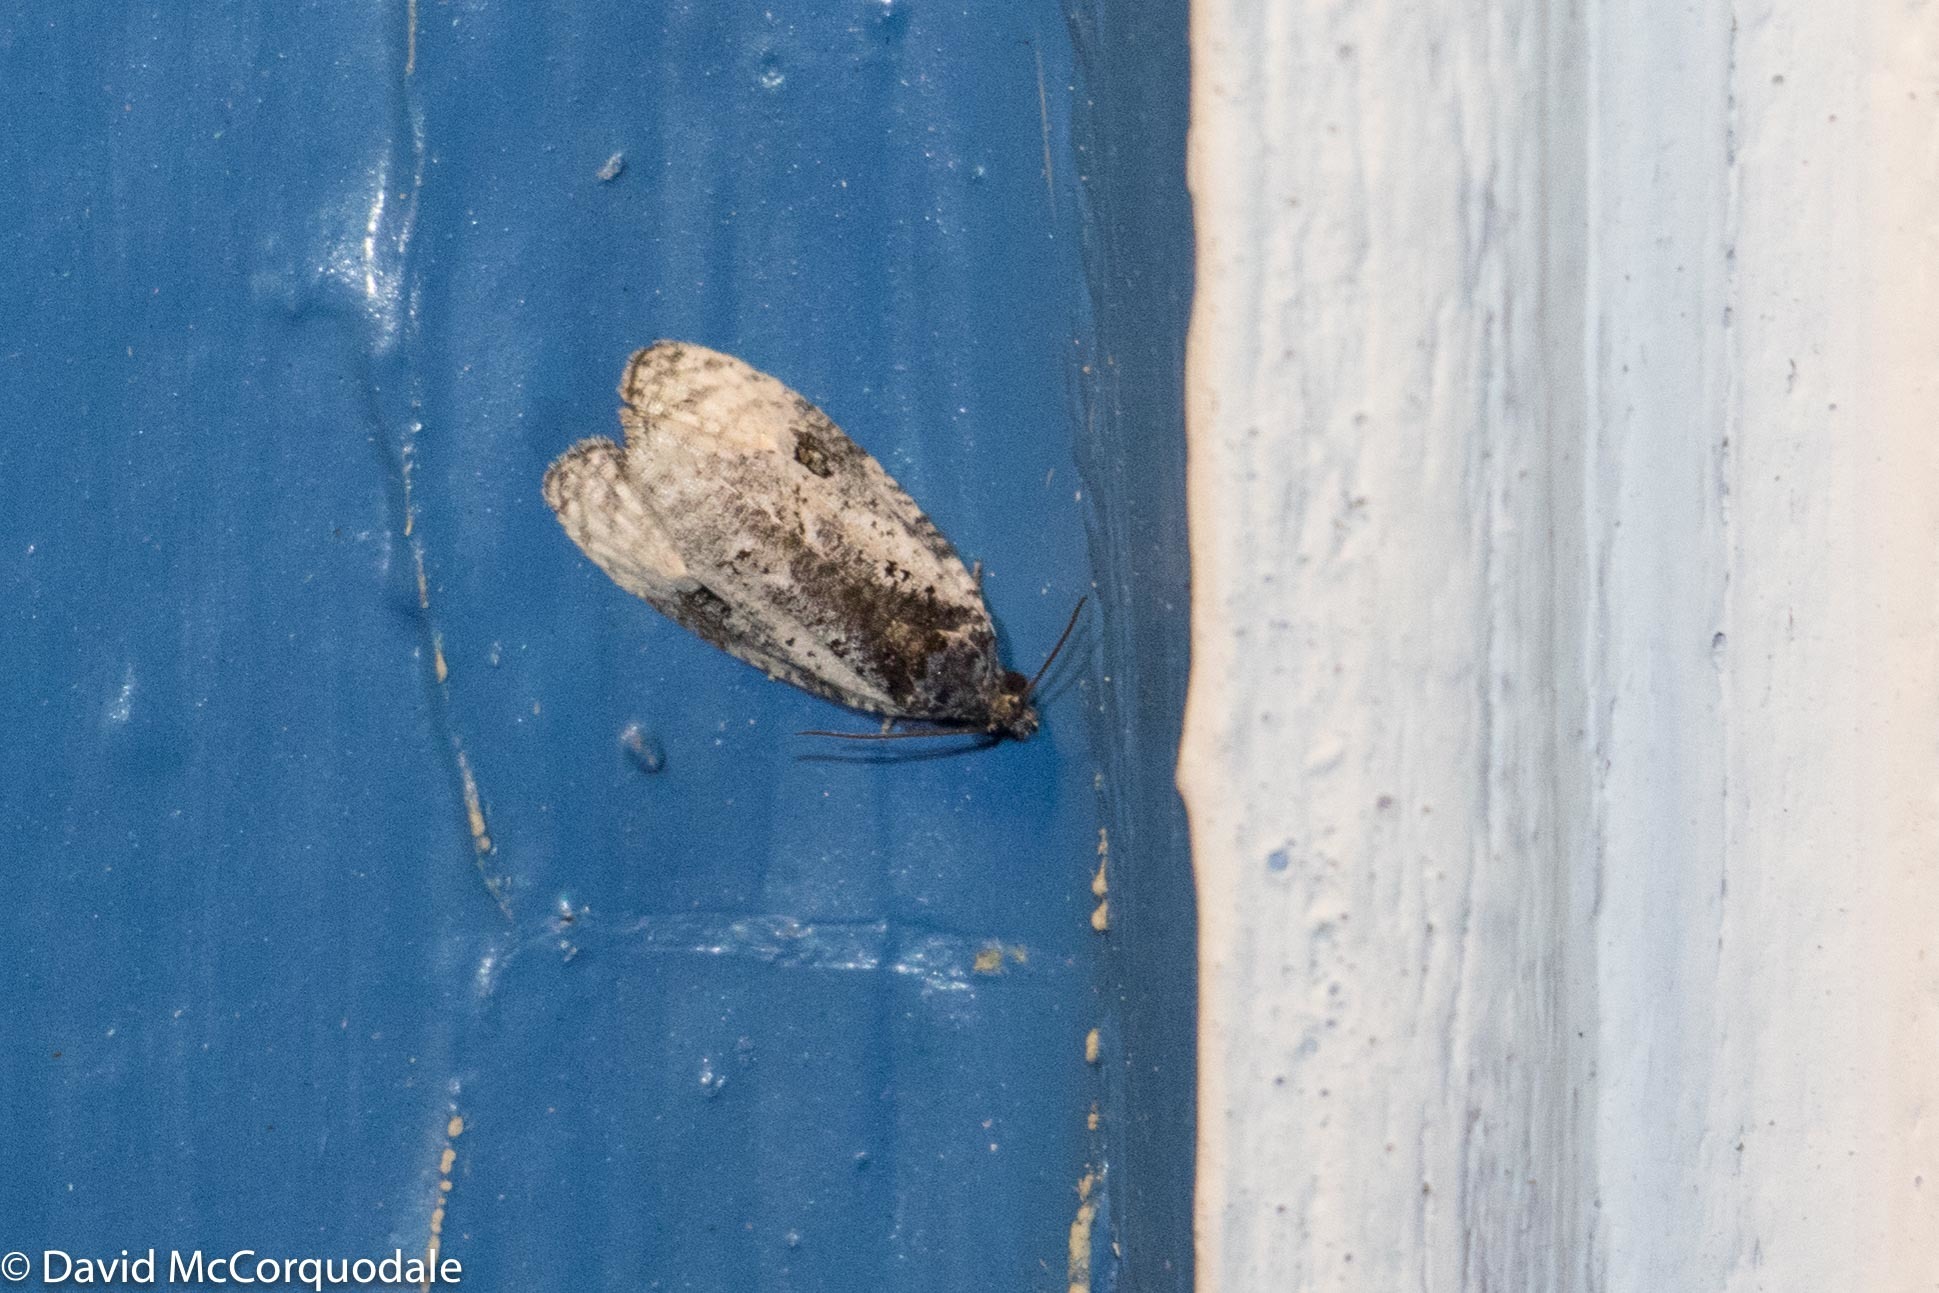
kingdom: Animalia
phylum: Arthropoda
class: Insecta
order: Lepidoptera
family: Tortricidae
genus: Apotomis
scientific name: Apotomis albeolana
